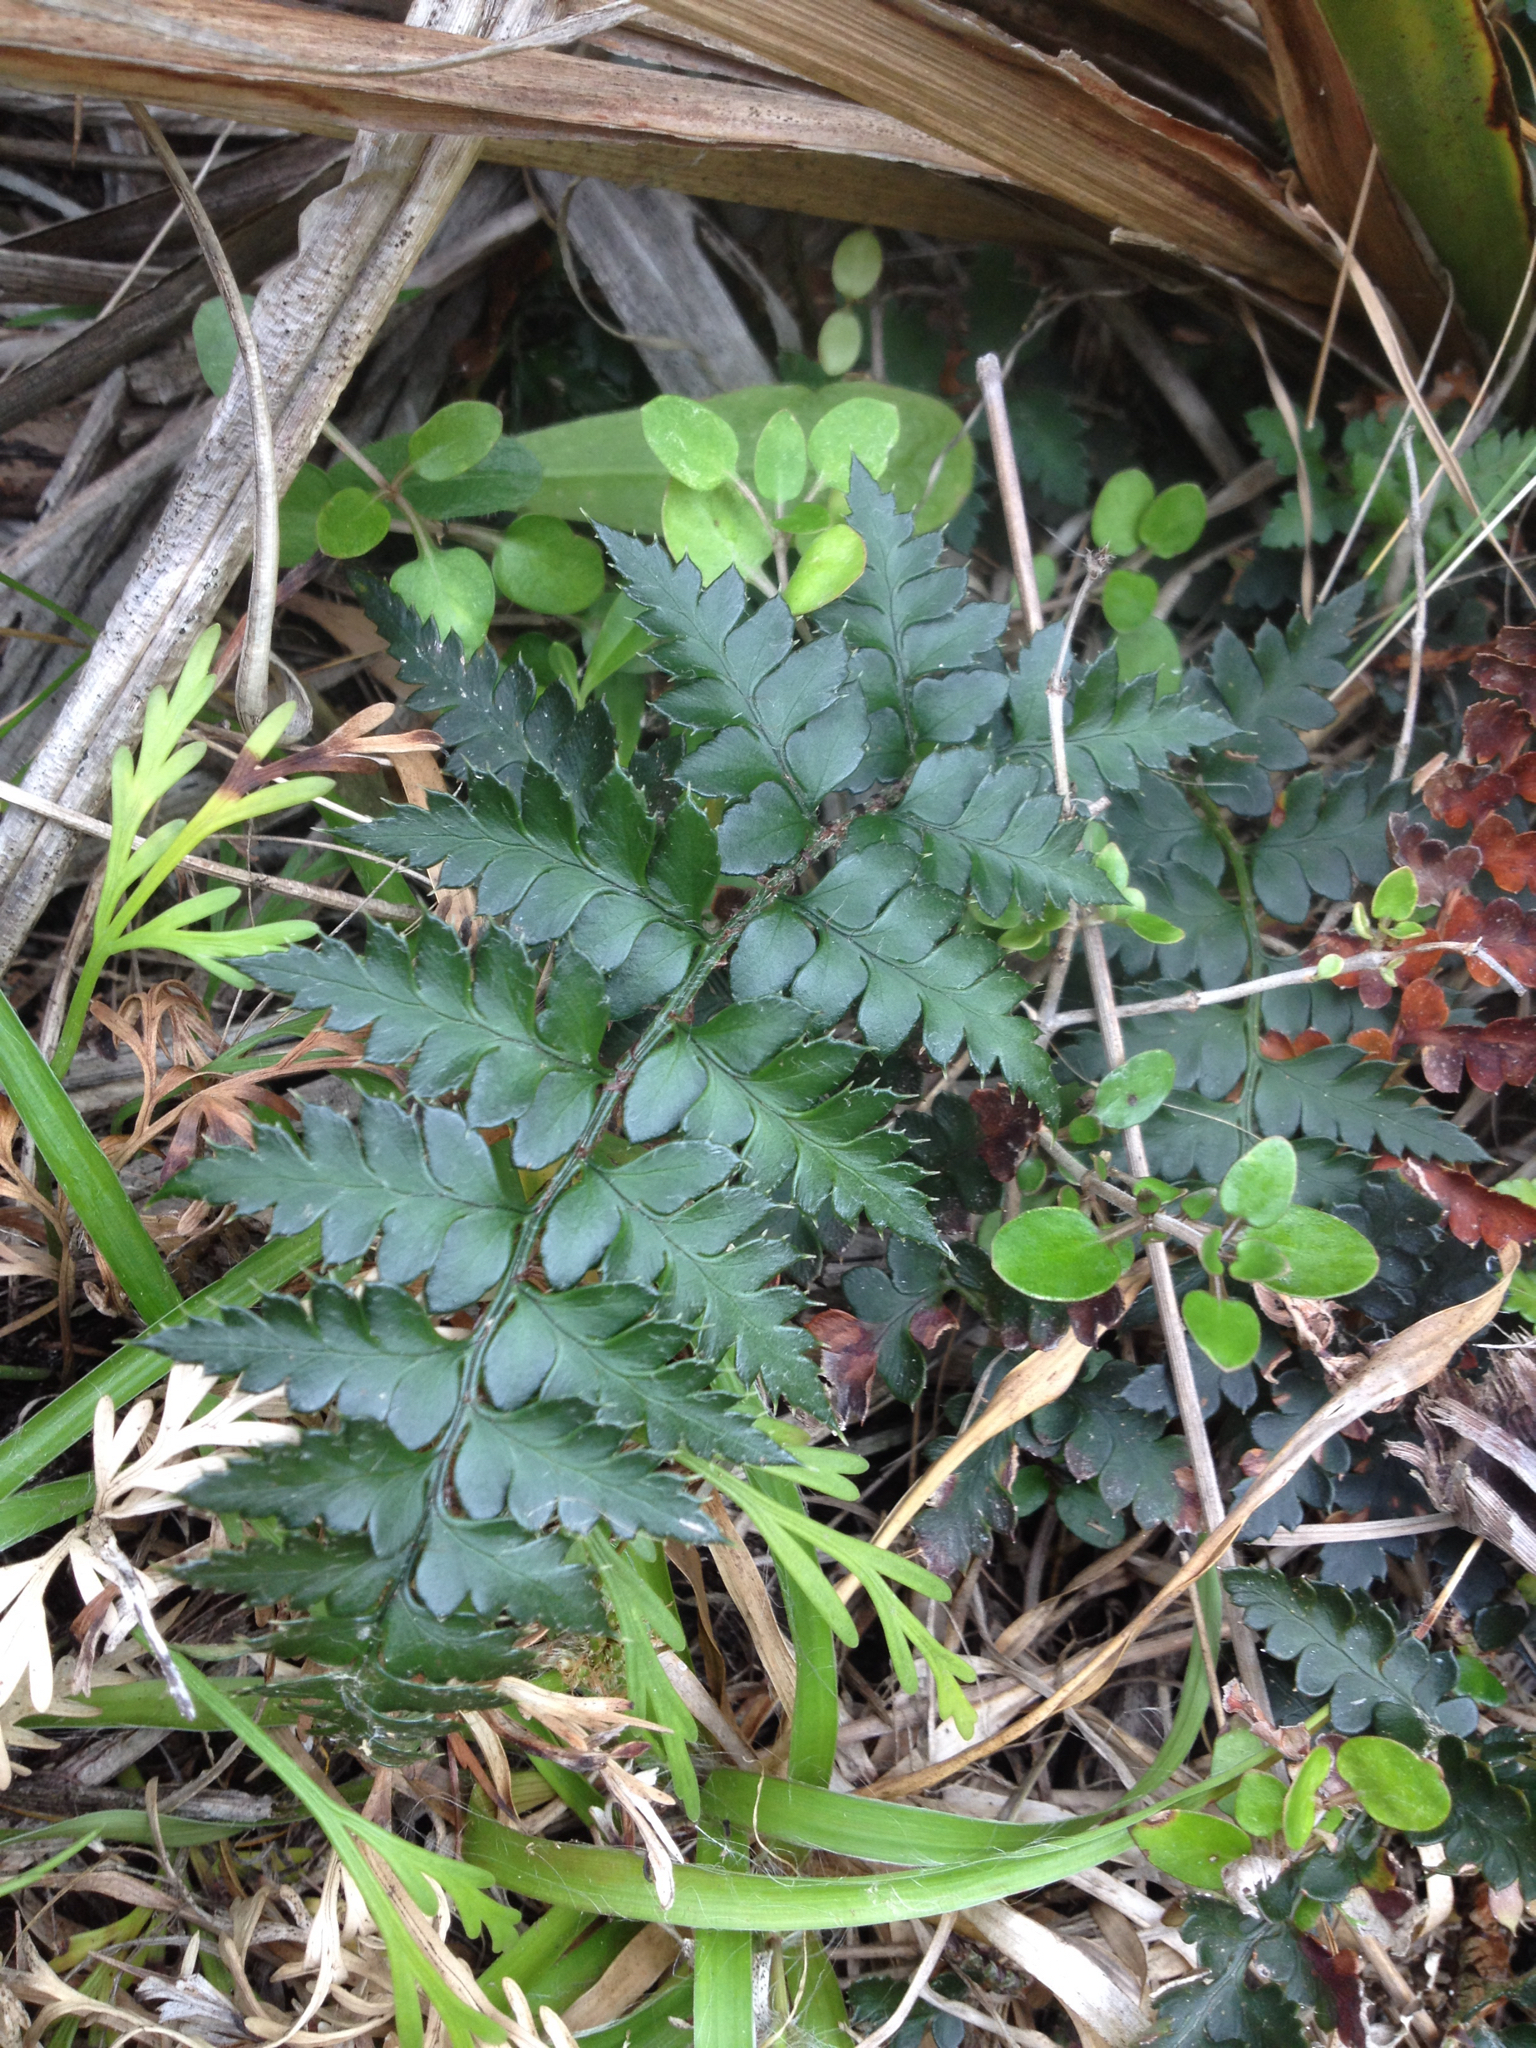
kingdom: Plantae
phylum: Tracheophyta
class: Polypodiopsida
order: Polypodiales
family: Dryopteridaceae
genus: Polystichum
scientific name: Polystichum oculatum
